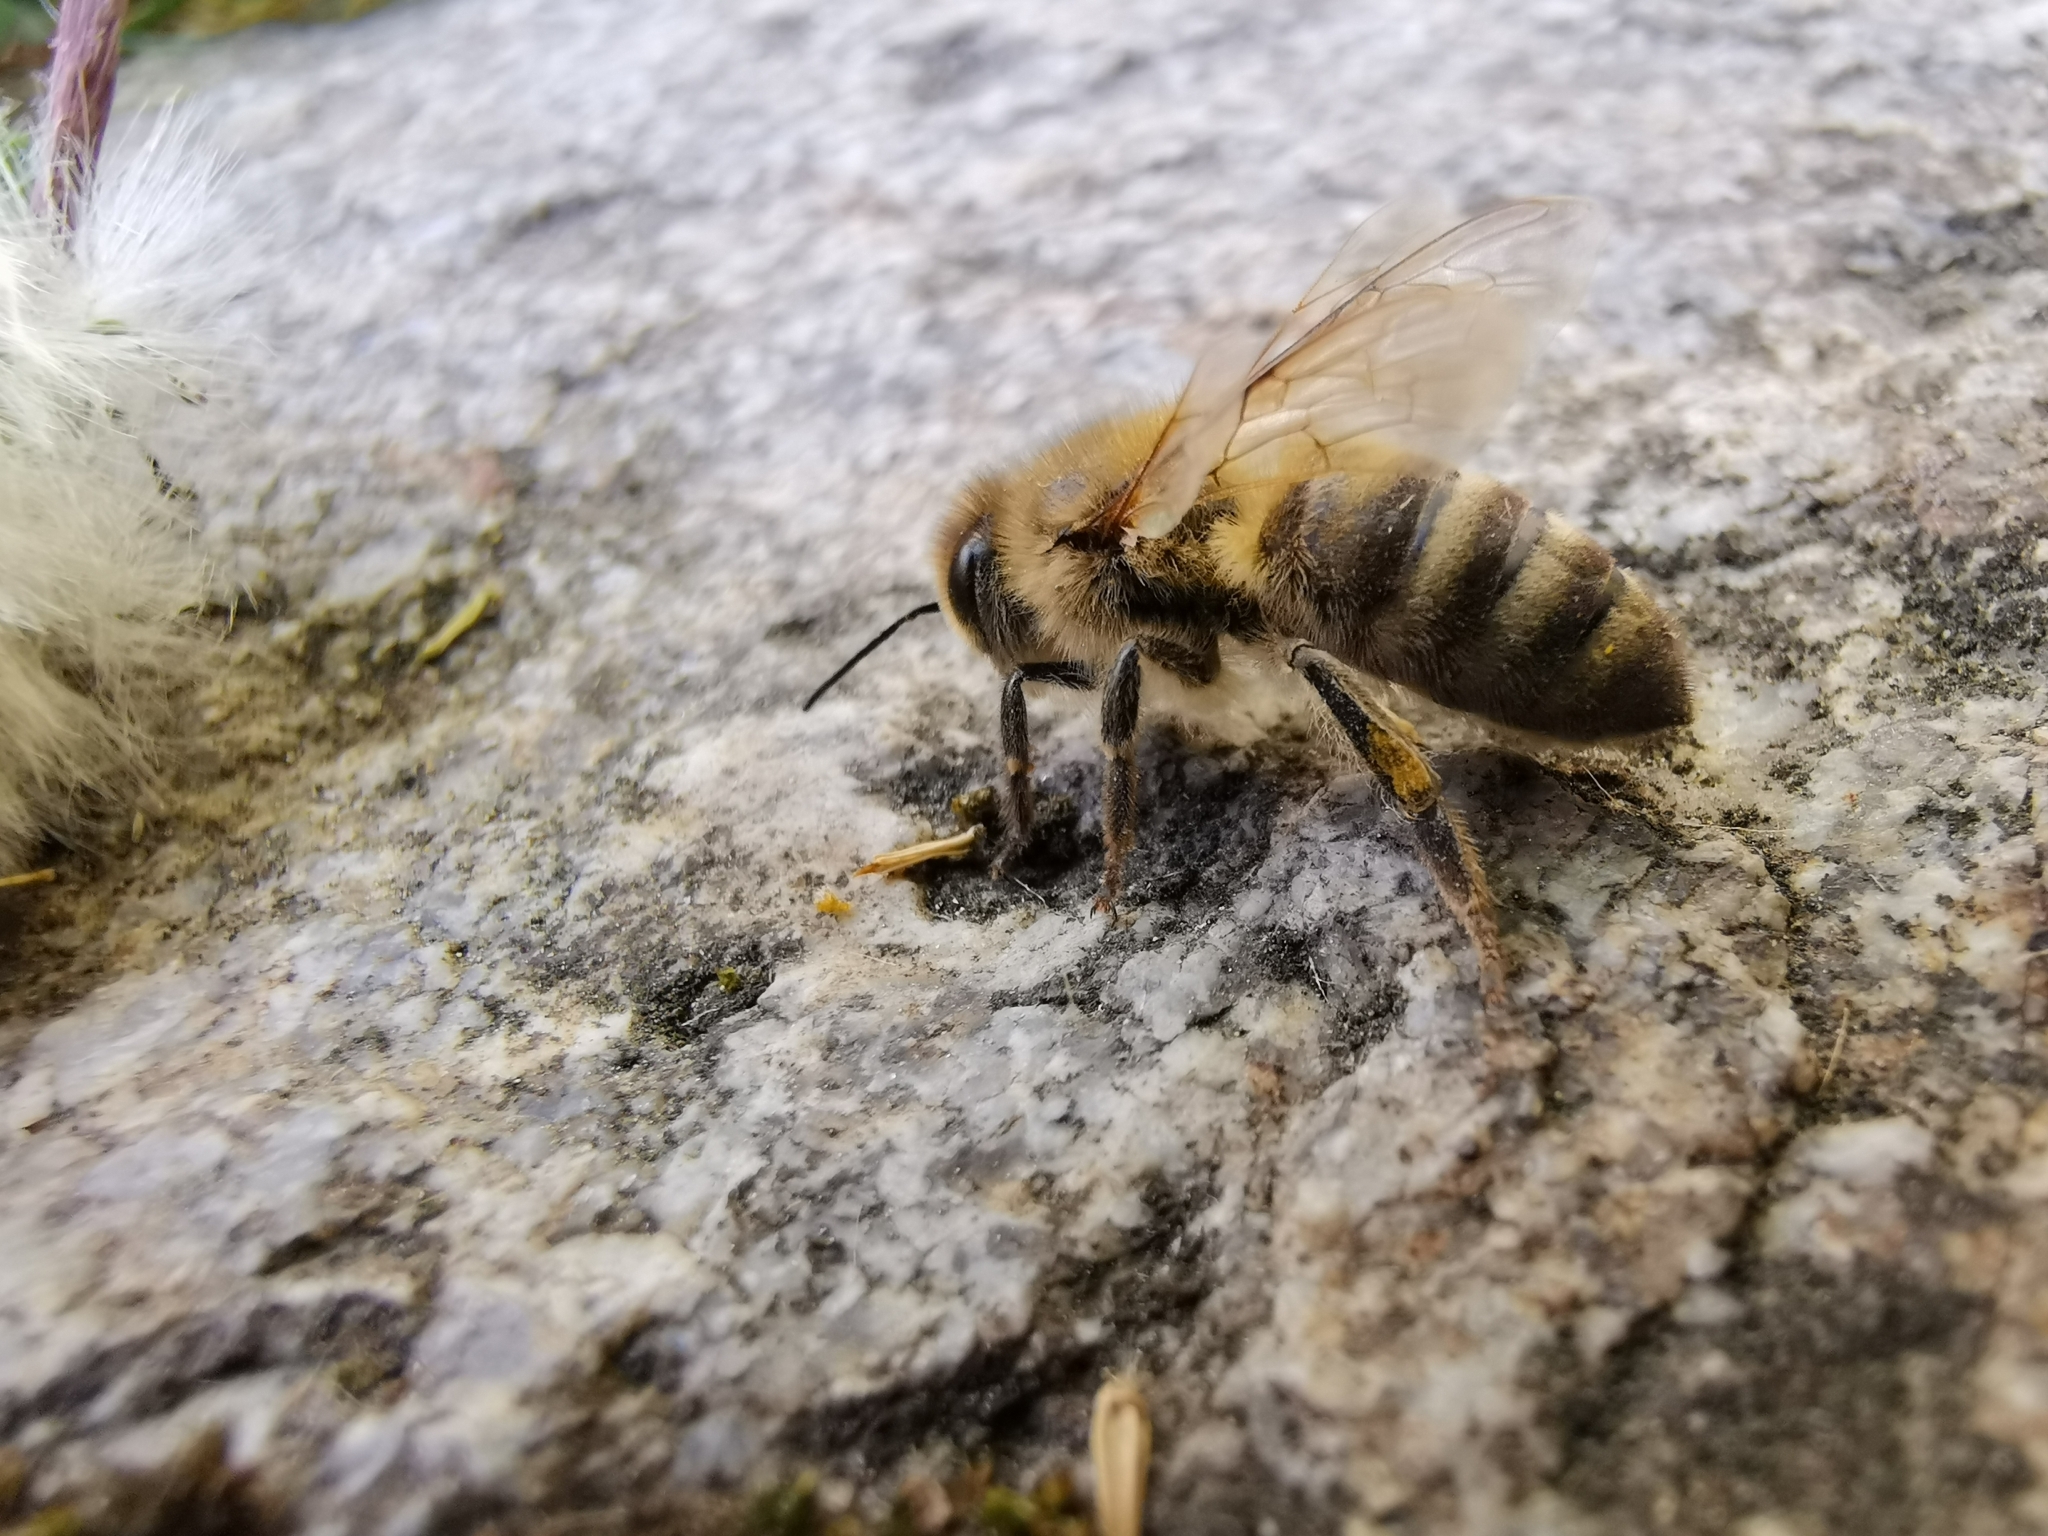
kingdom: Animalia
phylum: Arthropoda
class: Insecta
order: Hymenoptera
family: Apidae
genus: Apis
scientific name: Apis mellifera
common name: Honey bee
